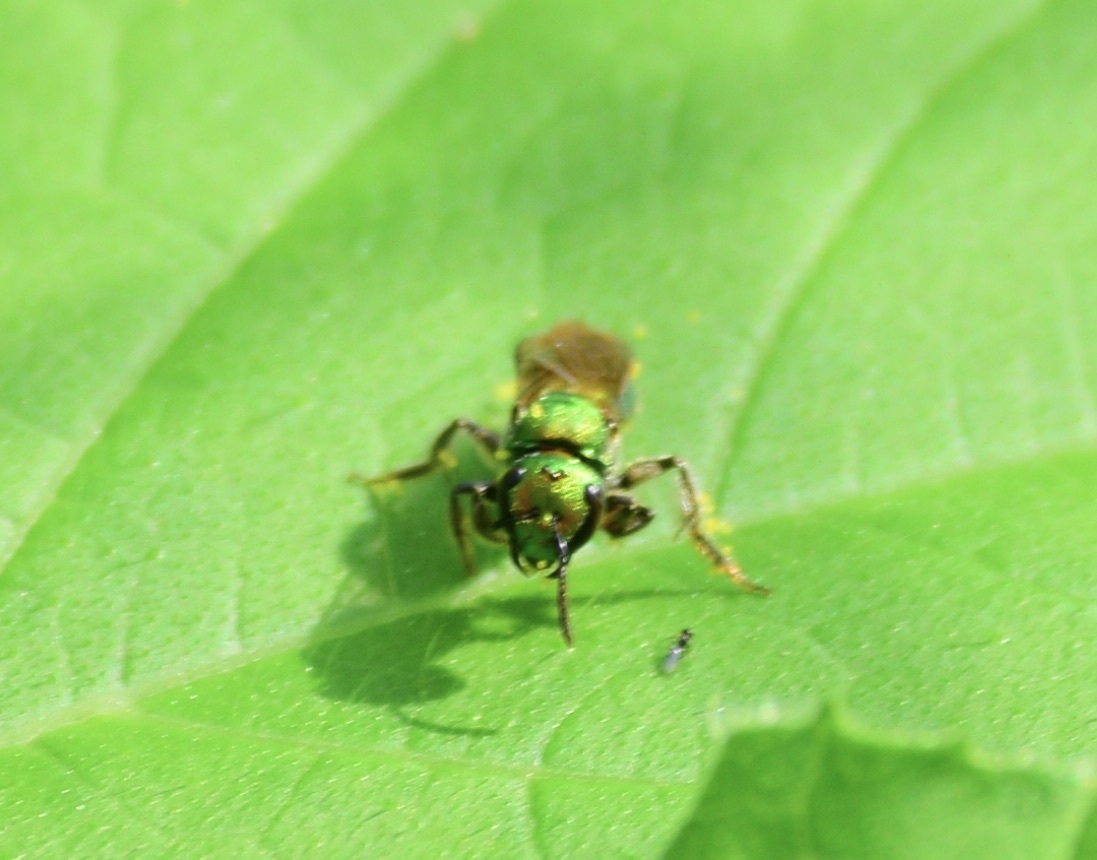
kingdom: Animalia
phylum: Arthropoda
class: Insecta
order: Hymenoptera
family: Halictidae
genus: Augochlora
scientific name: Augochlora pura
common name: Pure green sweat bee
